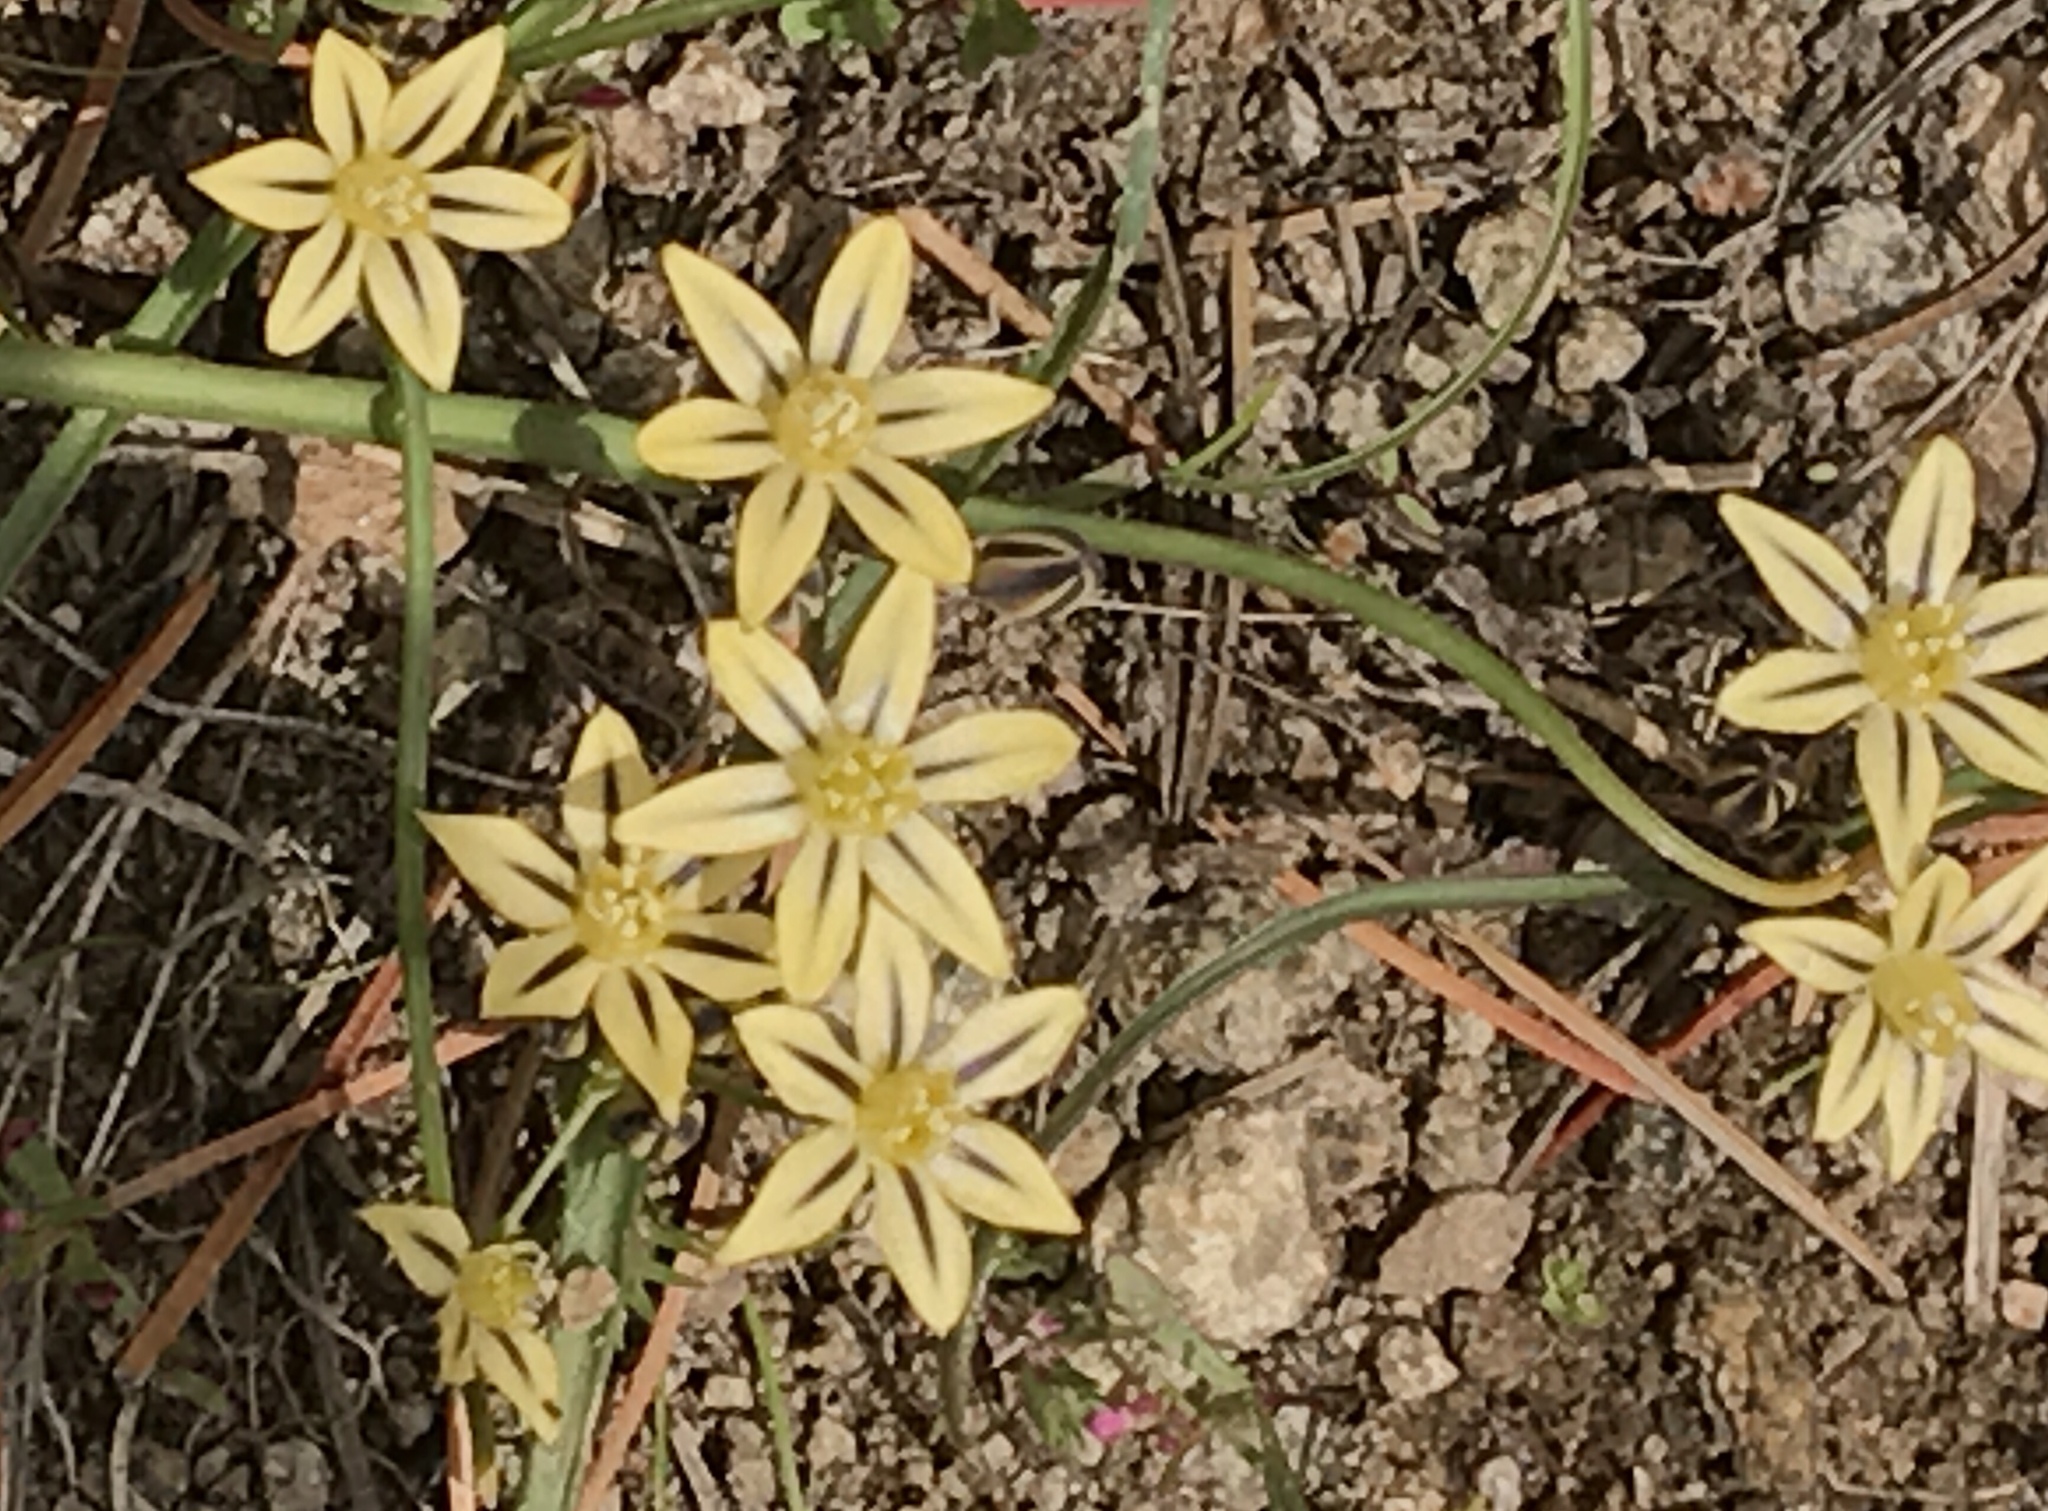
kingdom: Plantae
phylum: Tracheophyta
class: Liliopsida
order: Asparagales
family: Asparagaceae
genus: Triteleia
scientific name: Triteleia ixioides
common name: Yellow-brodiaea
